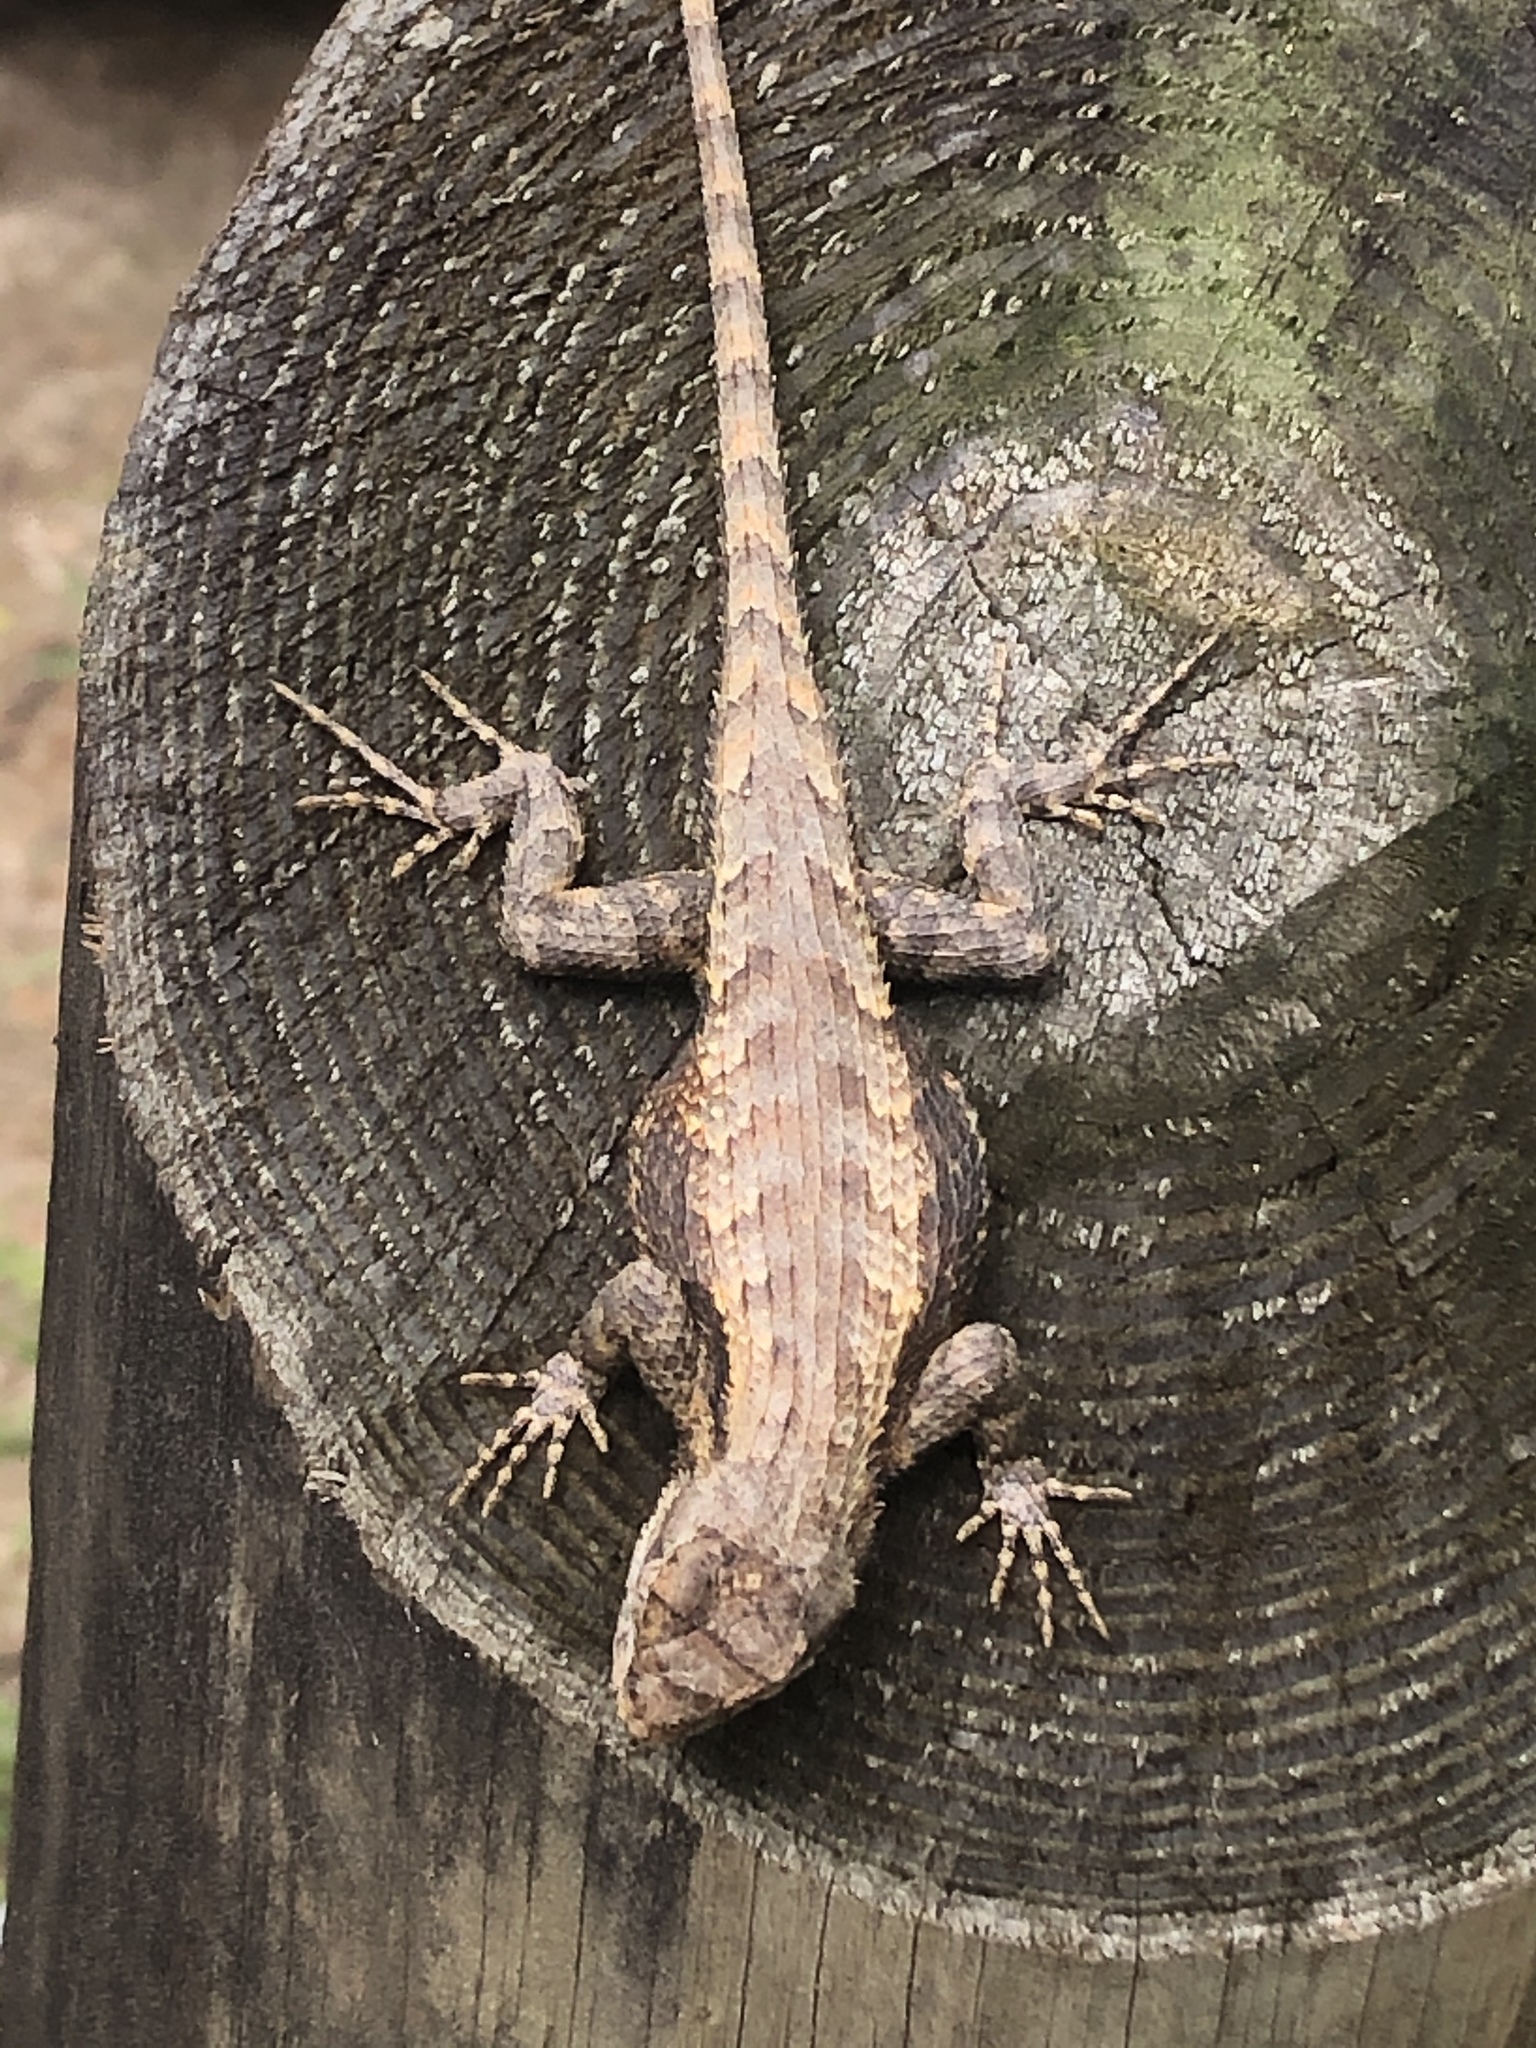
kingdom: Animalia
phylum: Chordata
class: Squamata
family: Phrynosomatidae
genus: Sceloporus
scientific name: Sceloporus consobrinus
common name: Southern prairie lizard
